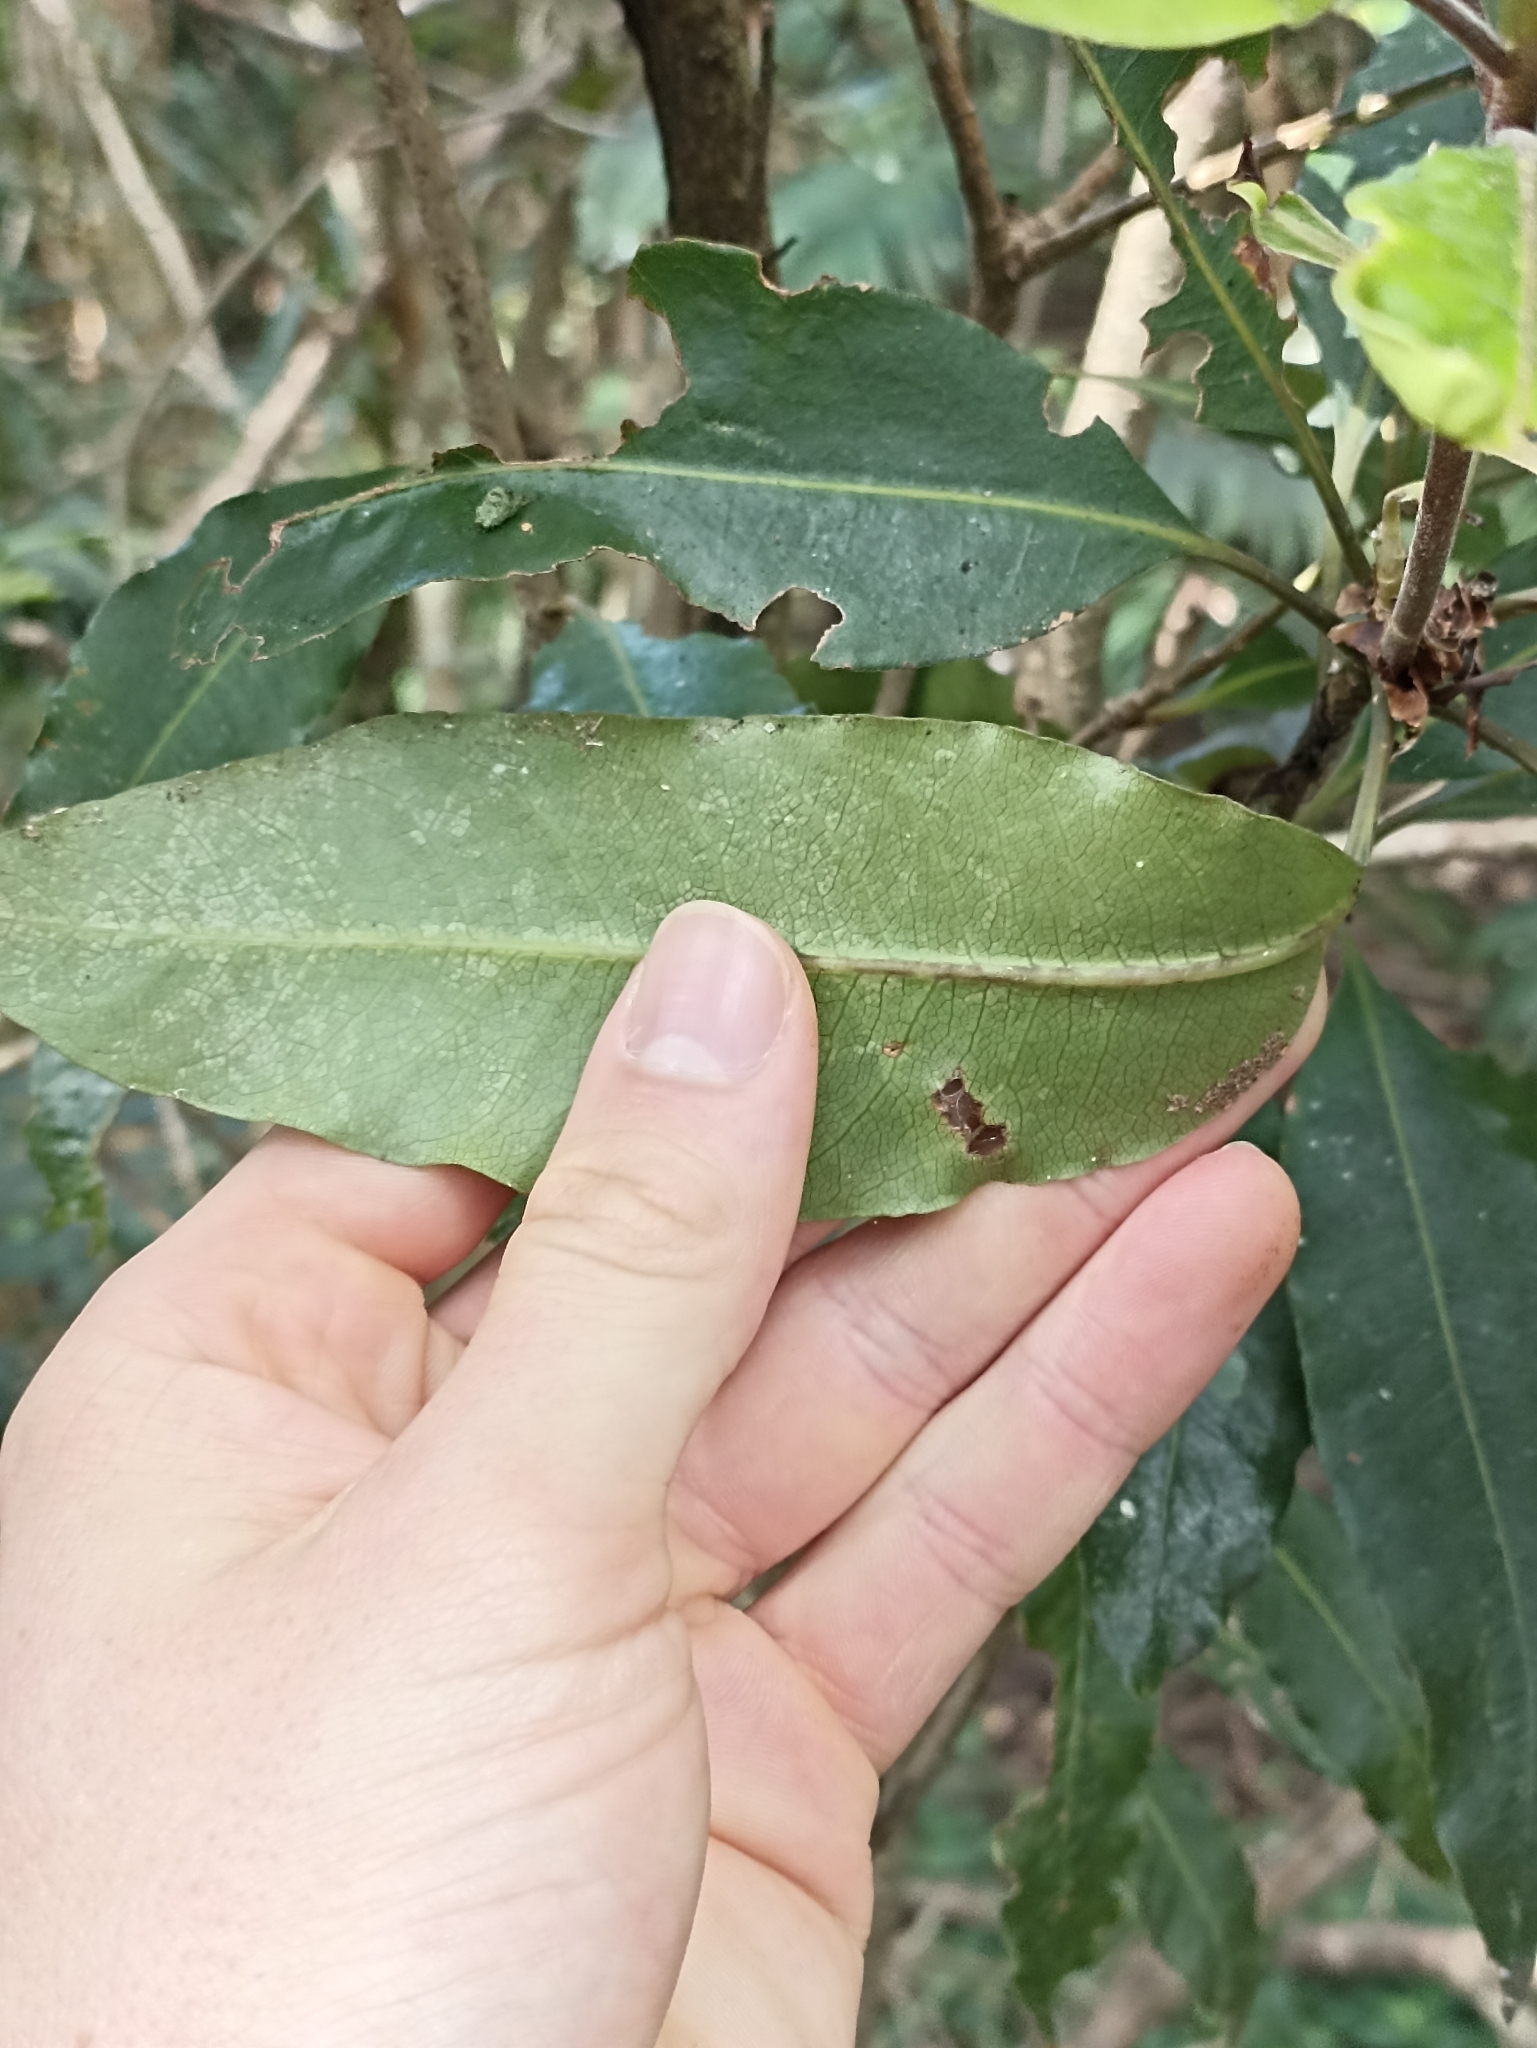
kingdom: Plantae
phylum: Tracheophyta
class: Magnoliopsida
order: Apiales
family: Pittosporaceae
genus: Pittosporum
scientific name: Pittosporum undulatum
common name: Australian cheesewood
